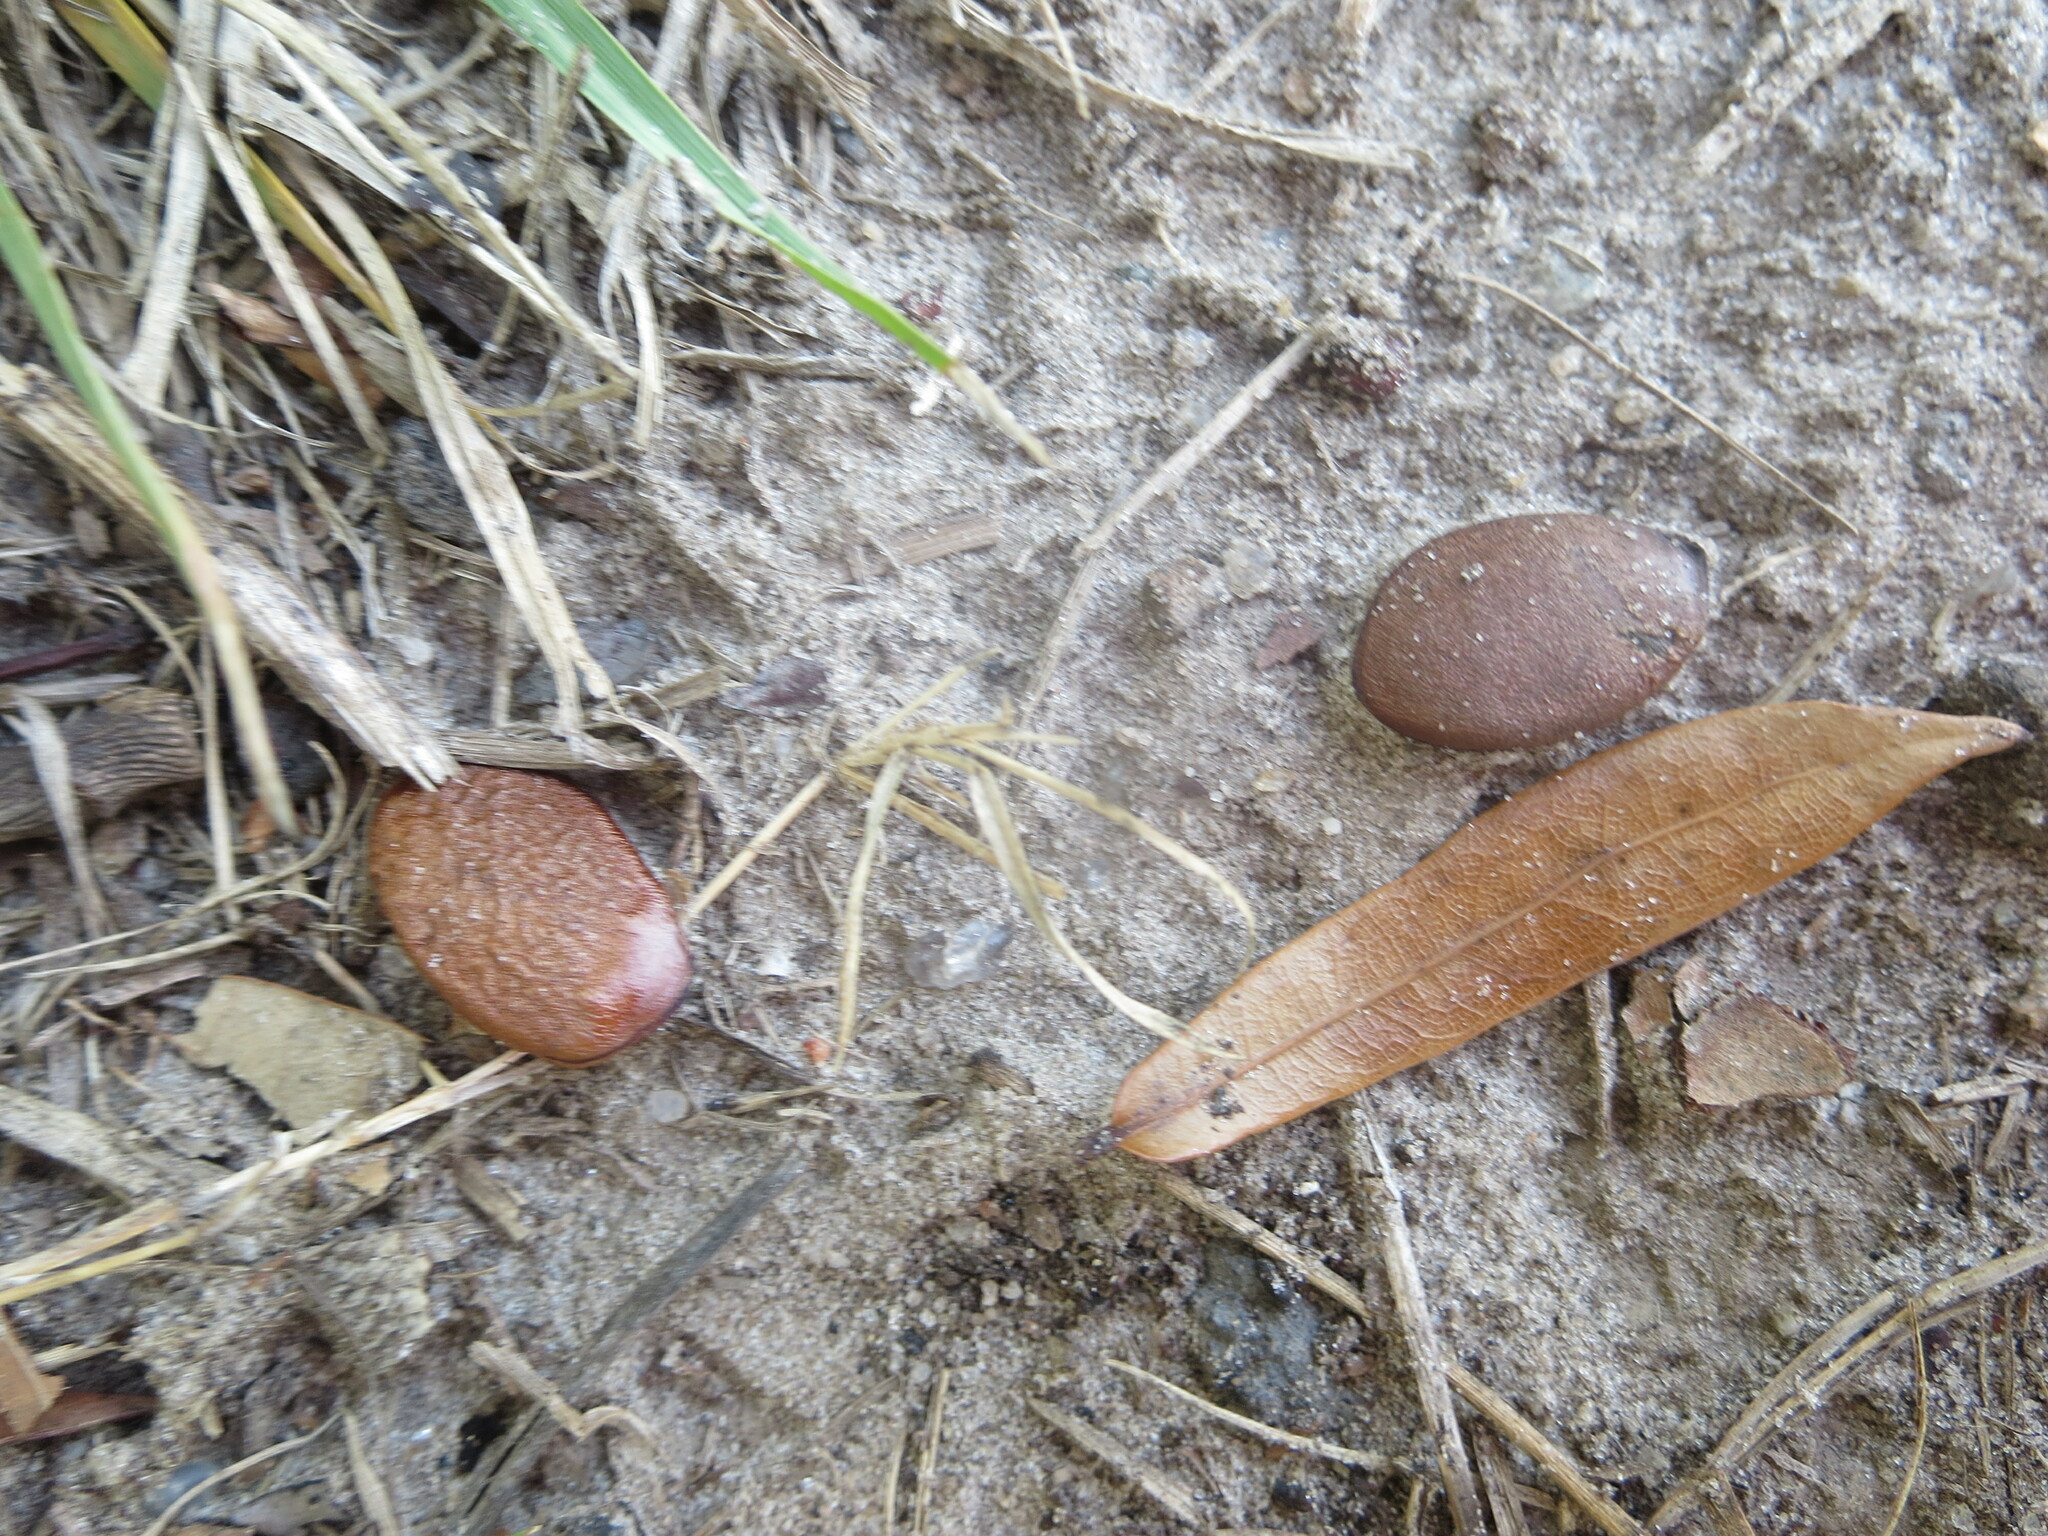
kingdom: Plantae
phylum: Tracheophyta
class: Magnoliopsida
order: Ericales
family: Ebenaceae
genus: Diospyros
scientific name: Diospyros virginiana
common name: Persimmon
